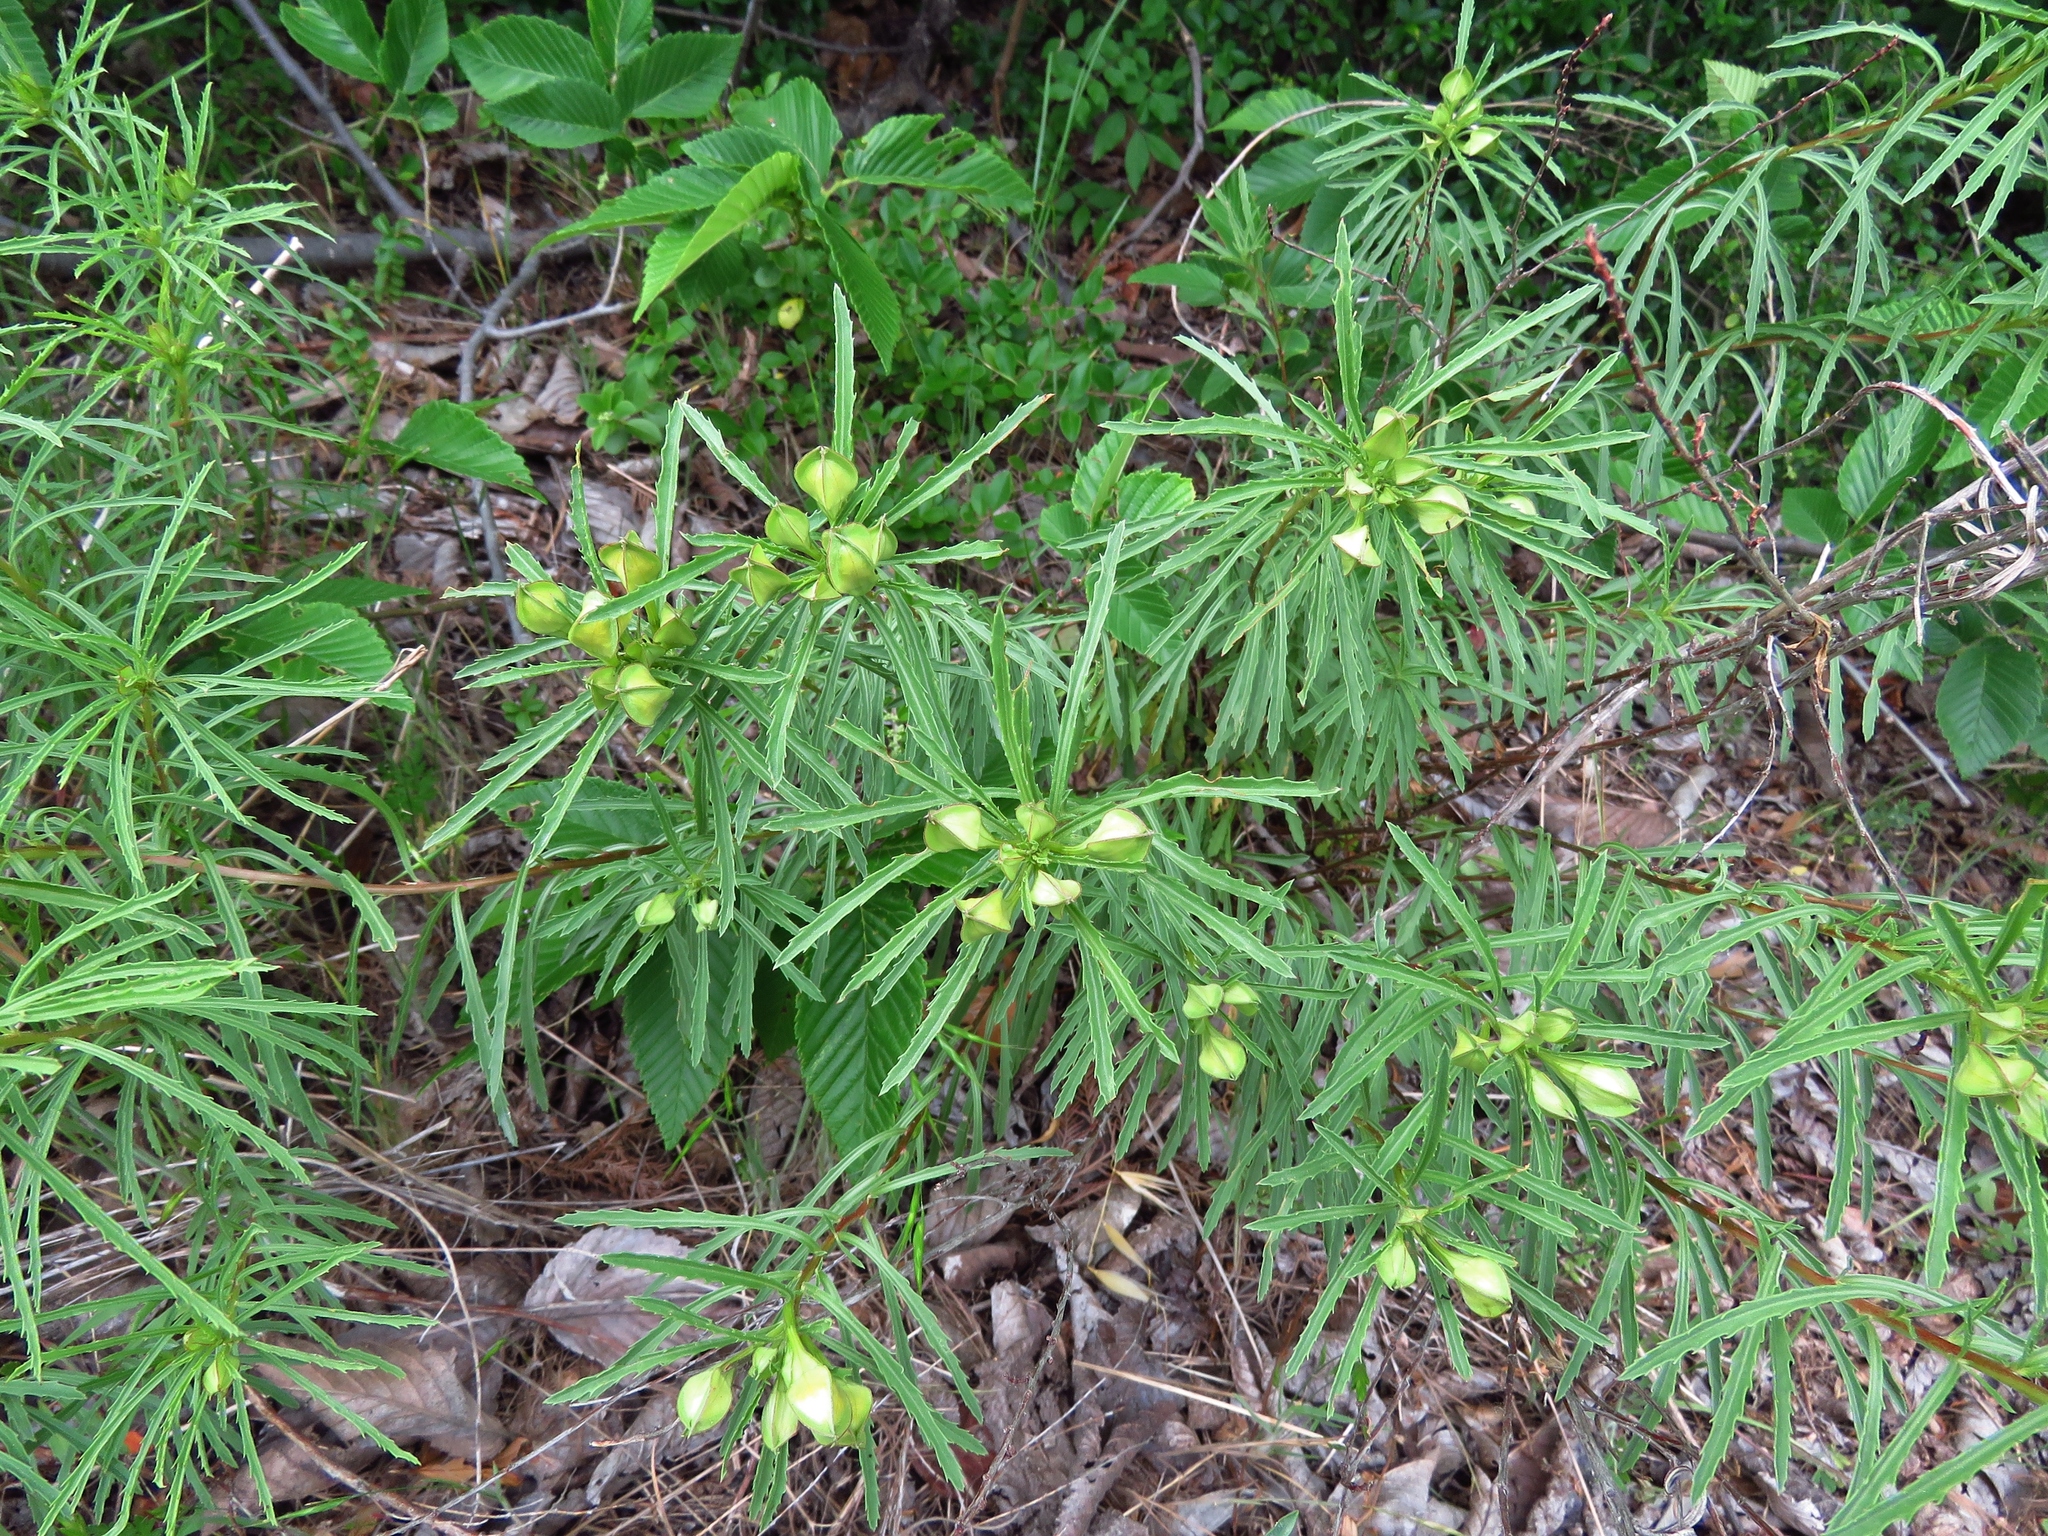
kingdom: Plantae
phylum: Tracheophyta
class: Magnoliopsida
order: Myrtales
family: Onagraceae
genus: Oenothera
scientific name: Oenothera
